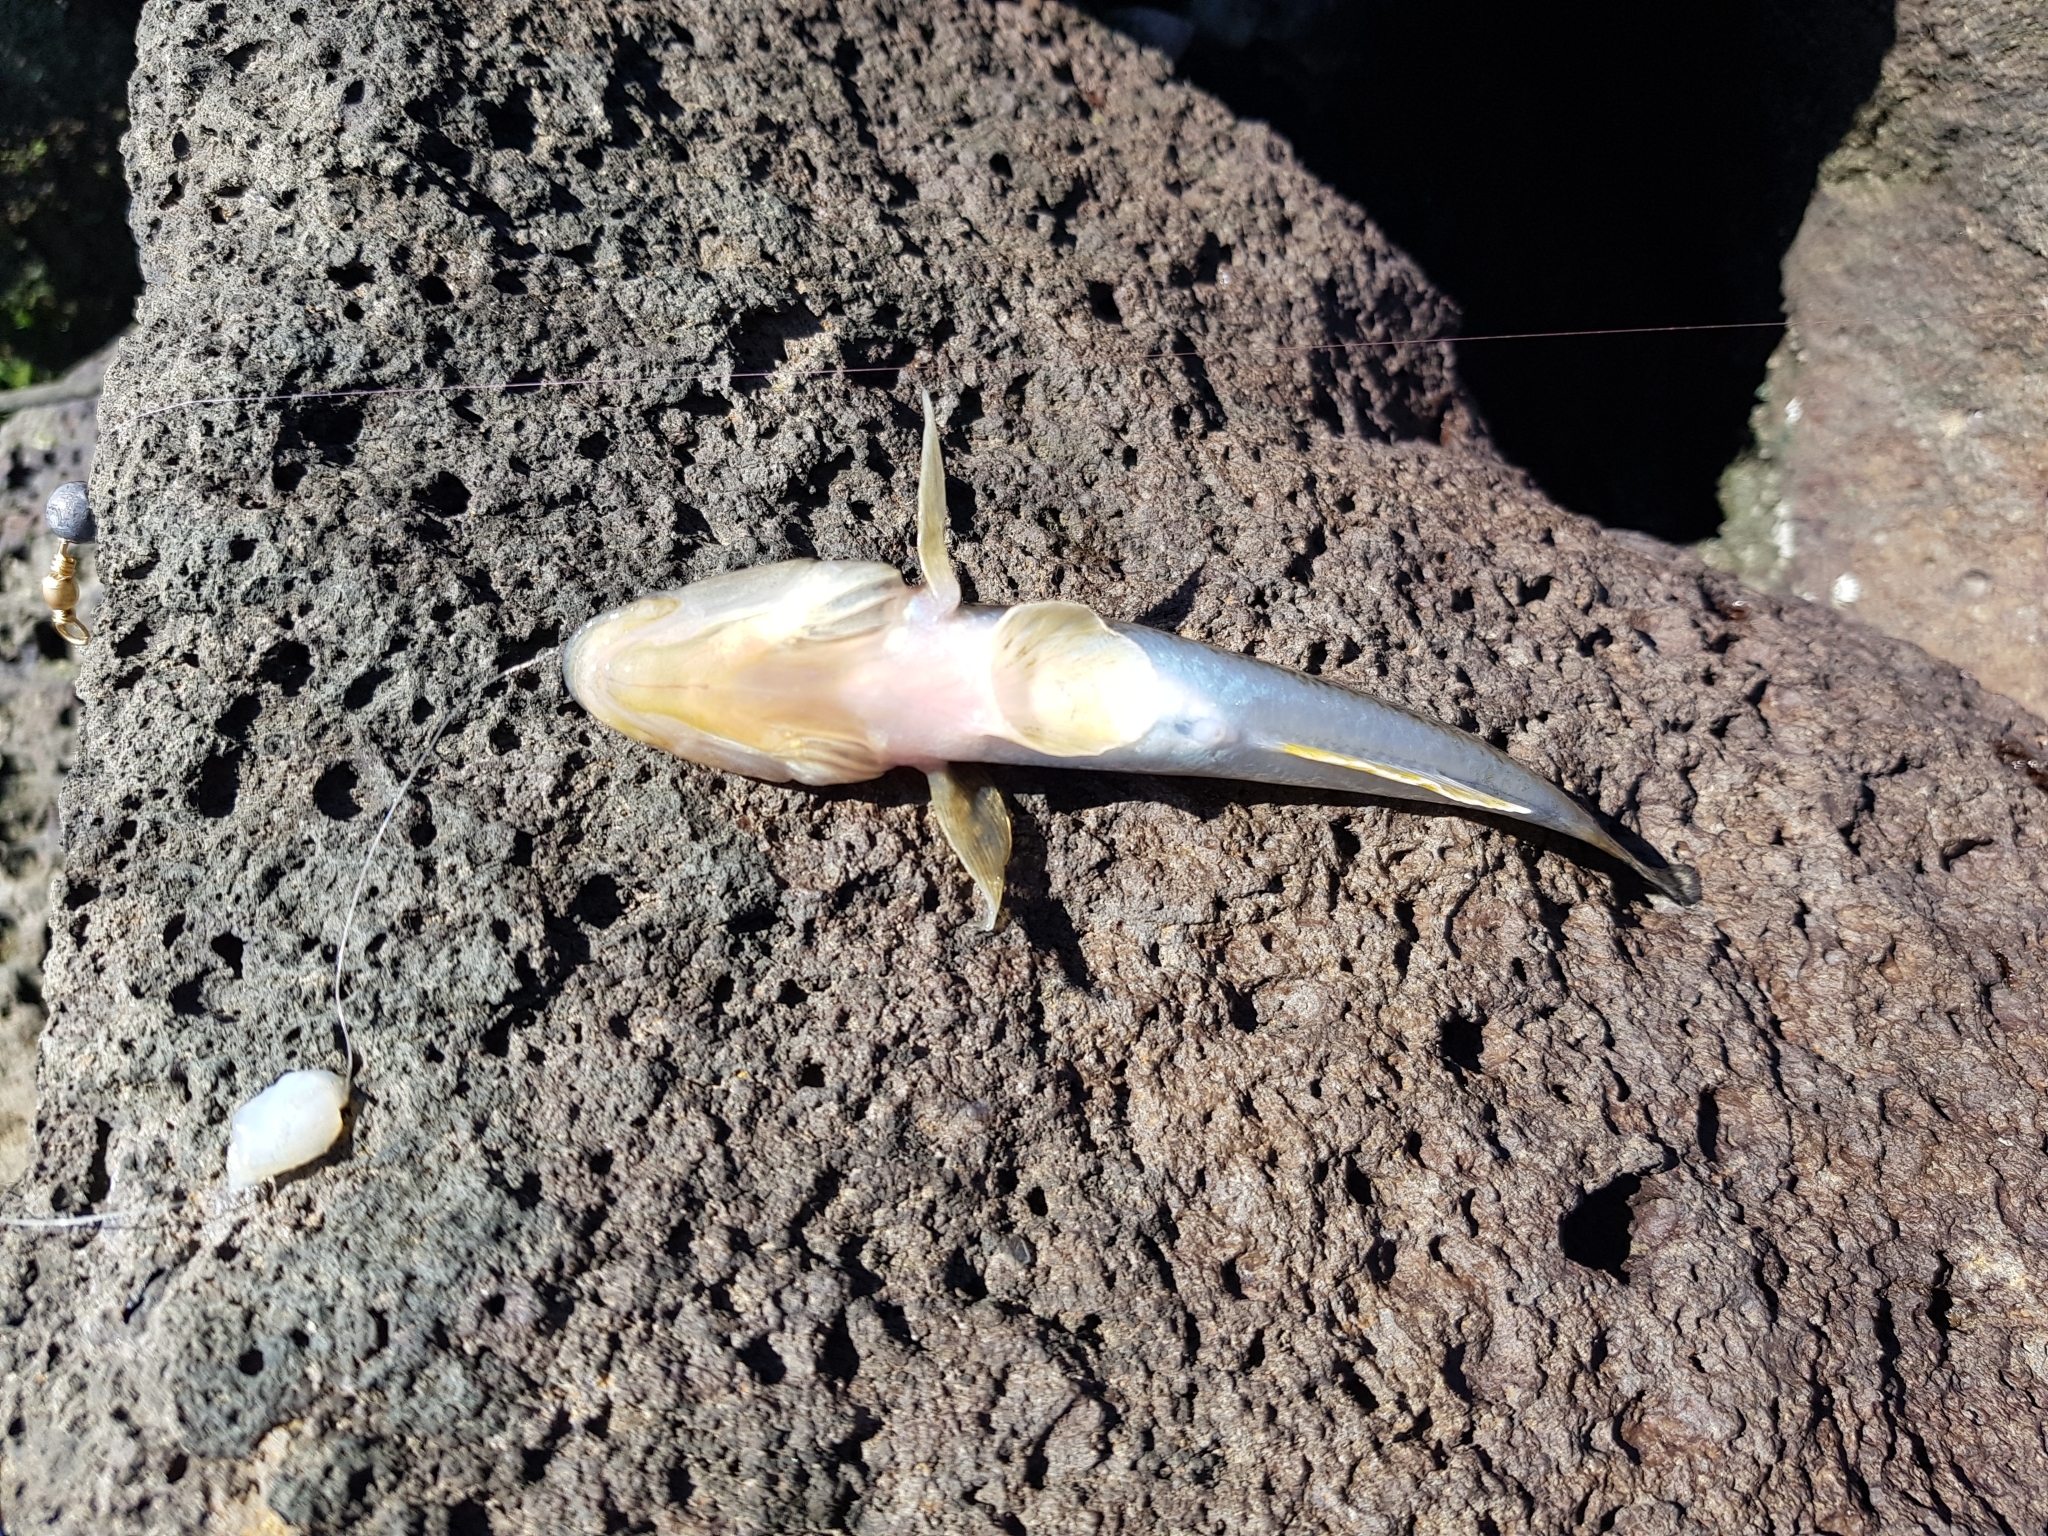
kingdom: Animalia
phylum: Chordata
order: Perciformes
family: Gobiidae
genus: Acanthogobius
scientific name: Acanthogobius flavimanus
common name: Yellowfin goby
